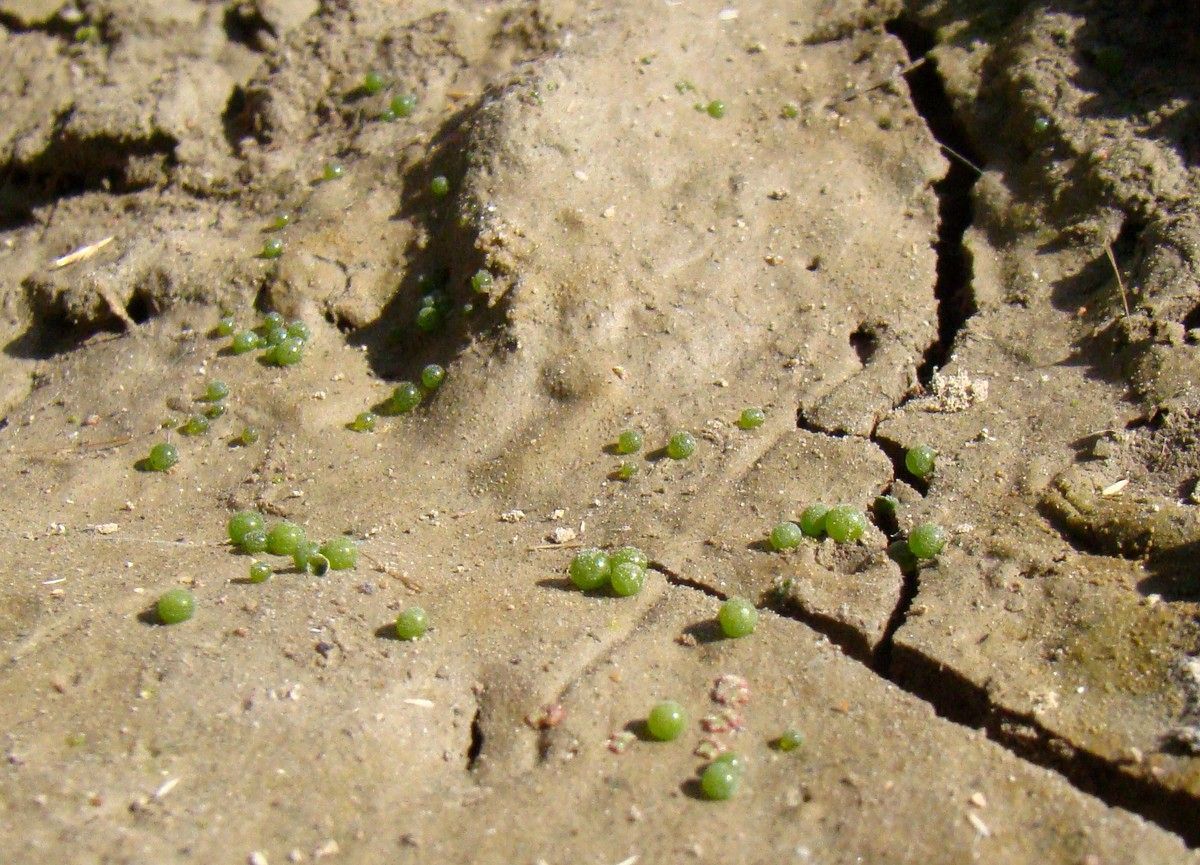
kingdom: Chromista
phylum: Ochrophyta
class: Xanthophyceae
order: Botrydiales
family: Botrydiaceae
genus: Botrydium
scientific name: Botrydium granulatum
